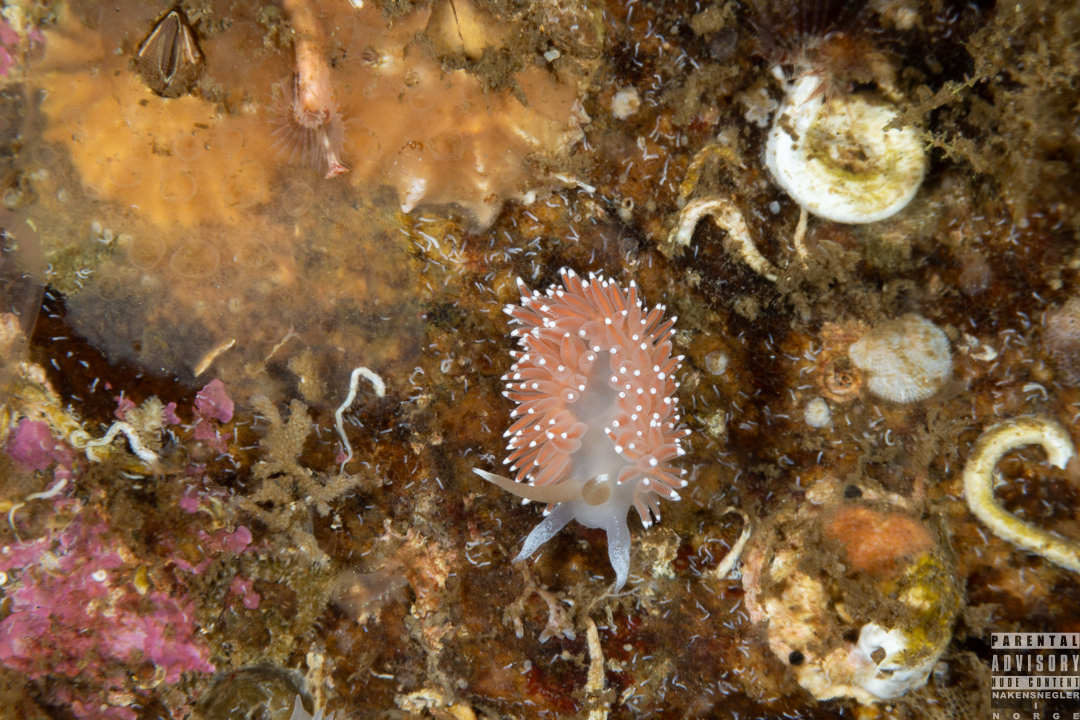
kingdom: Animalia
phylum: Mollusca
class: Gastropoda
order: Nudibranchia
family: Coryphellidae
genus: Coryphella
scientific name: Coryphella nobilis
